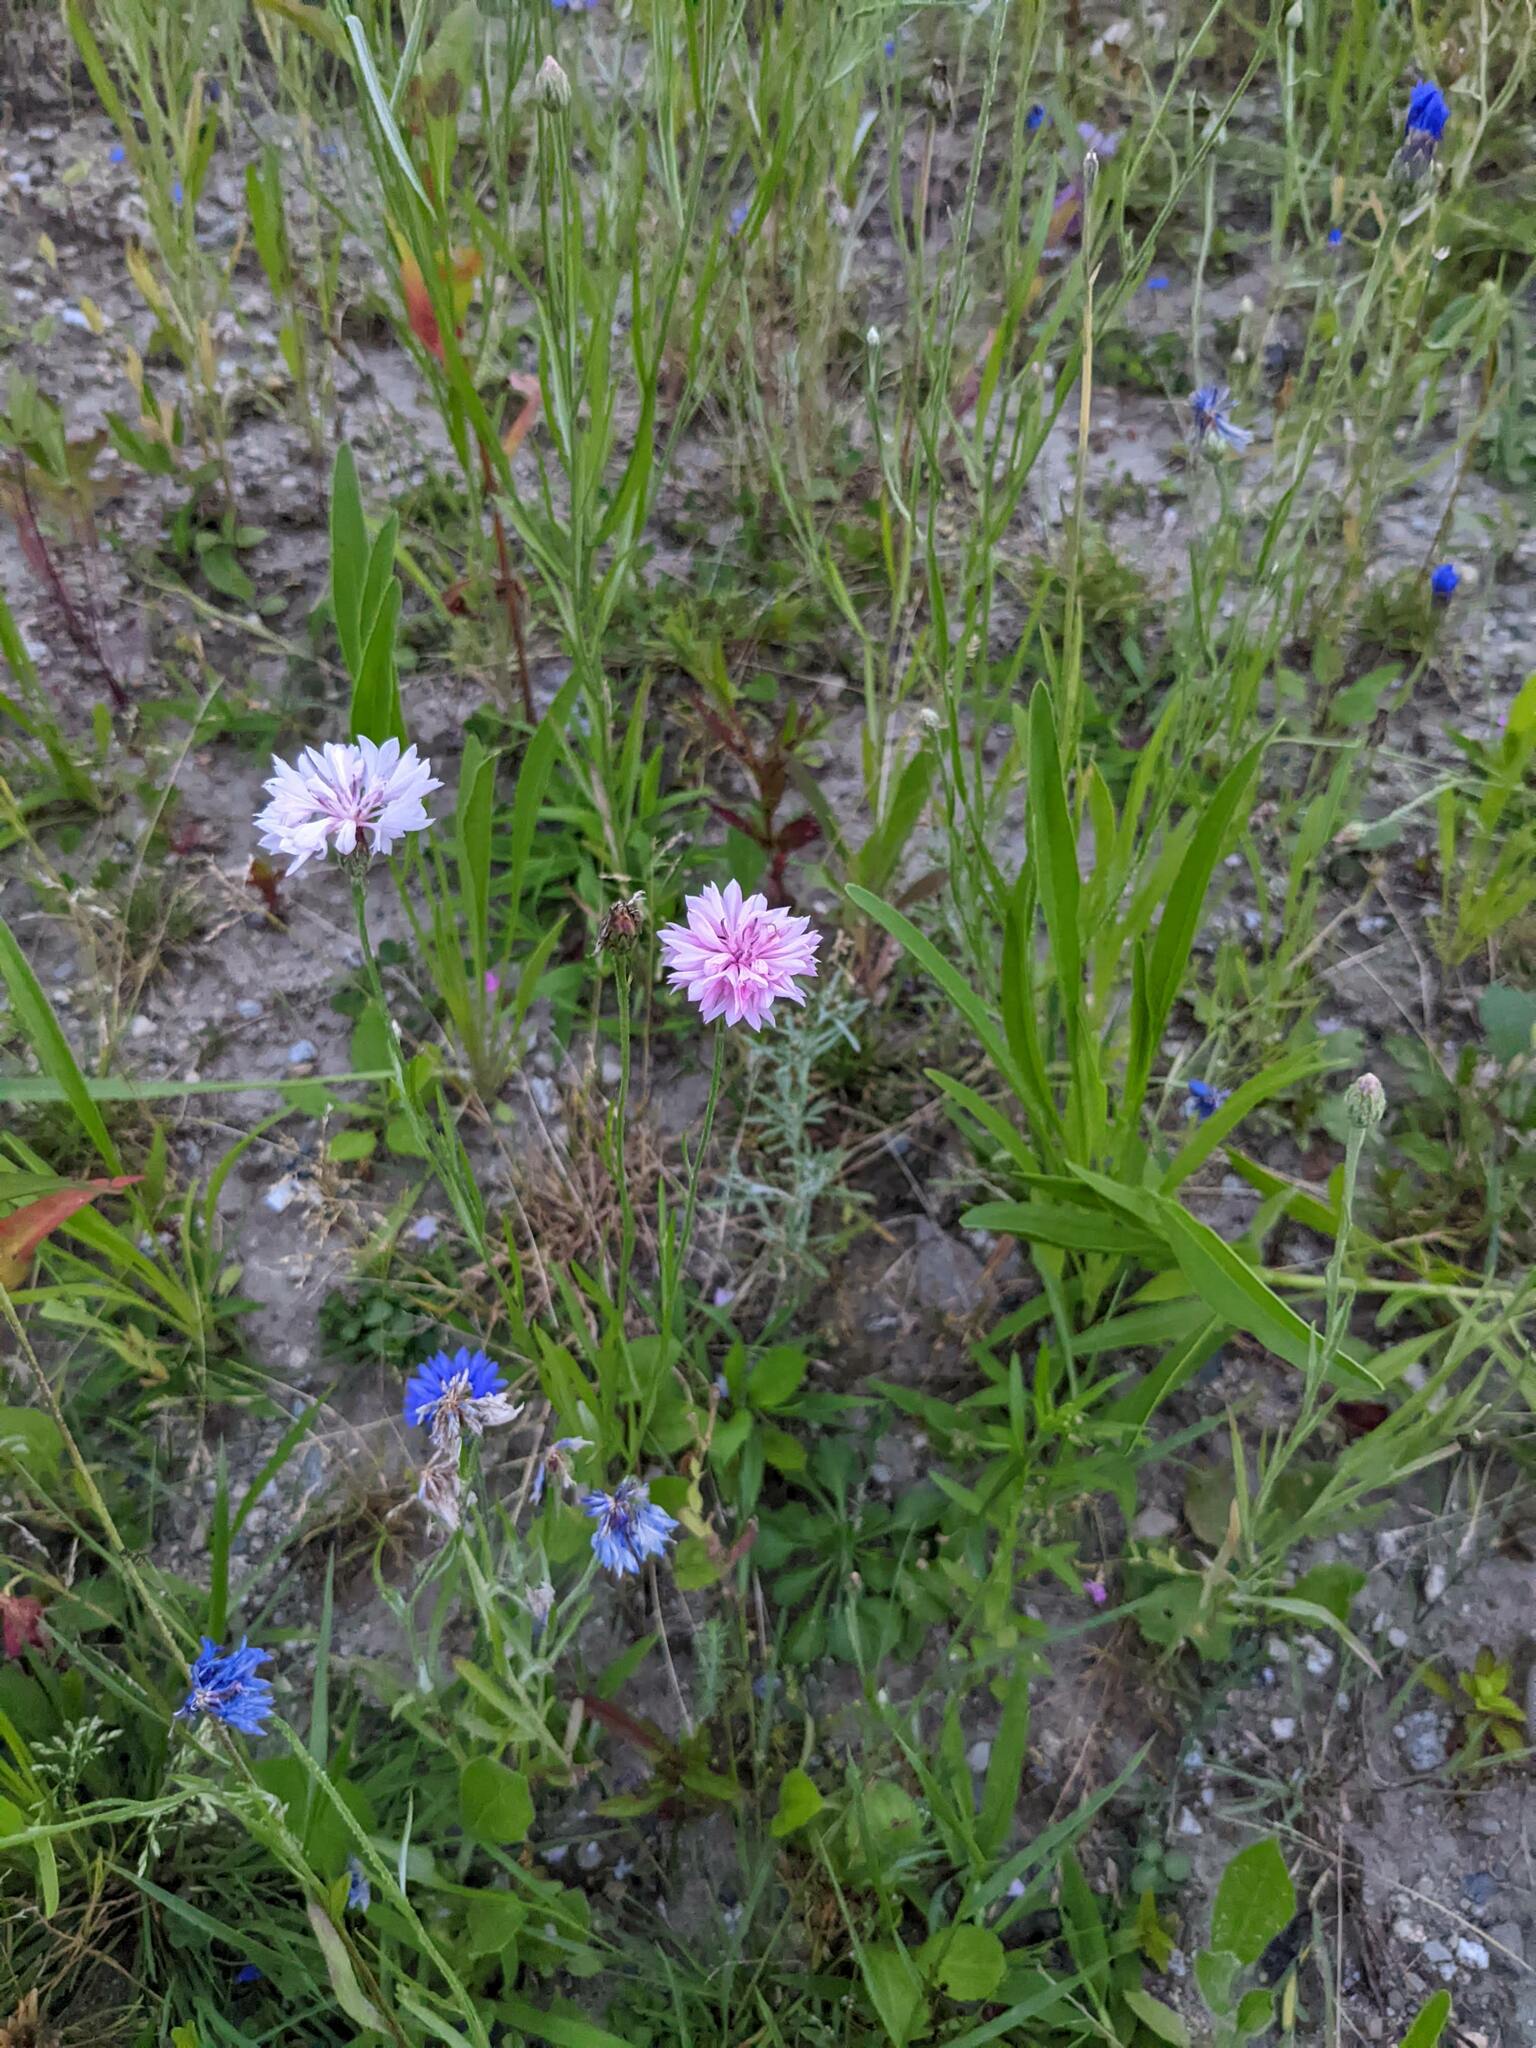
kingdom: Plantae
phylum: Tracheophyta
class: Magnoliopsida
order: Asterales
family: Asteraceae
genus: Centaurea
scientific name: Centaurea cyanus
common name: Cornflower
